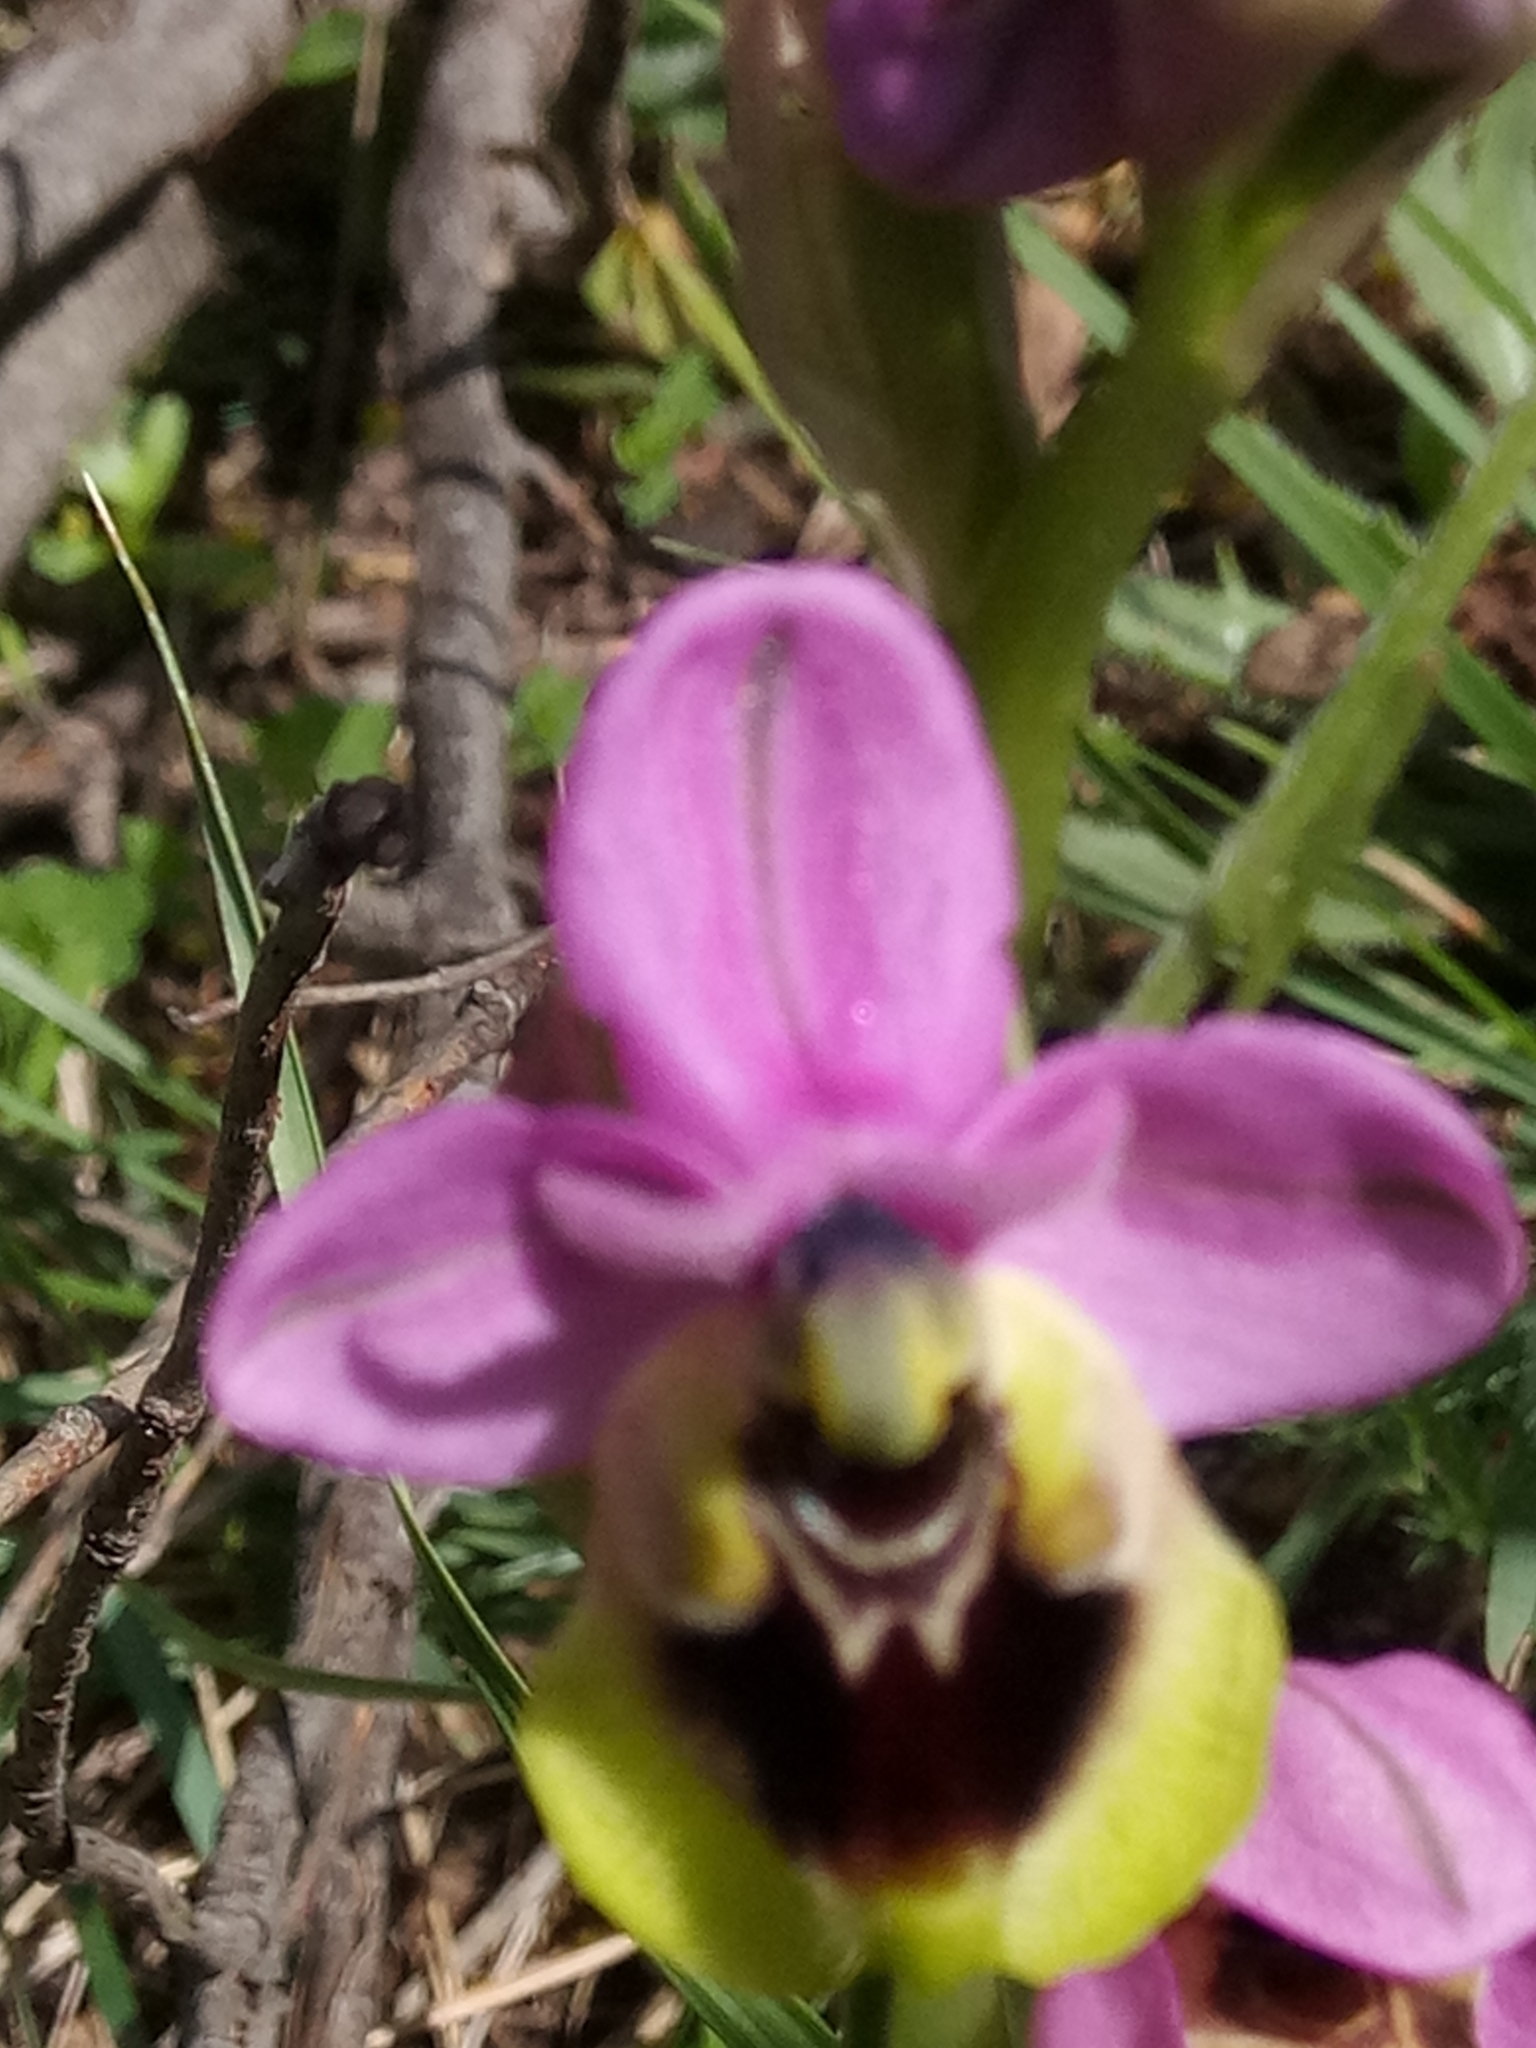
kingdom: Plantae
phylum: Tracheophyta
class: Liliopsida
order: Asparagales
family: Orchidaceae
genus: Ophrys
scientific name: Ophrys tenthredinifera
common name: Sawfly orchid
